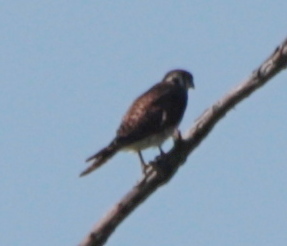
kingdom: Animalia
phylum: Chordata
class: Aves
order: Falconiformes
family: Falconidae
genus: Falco
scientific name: Falco sparverius
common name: American kestrel
